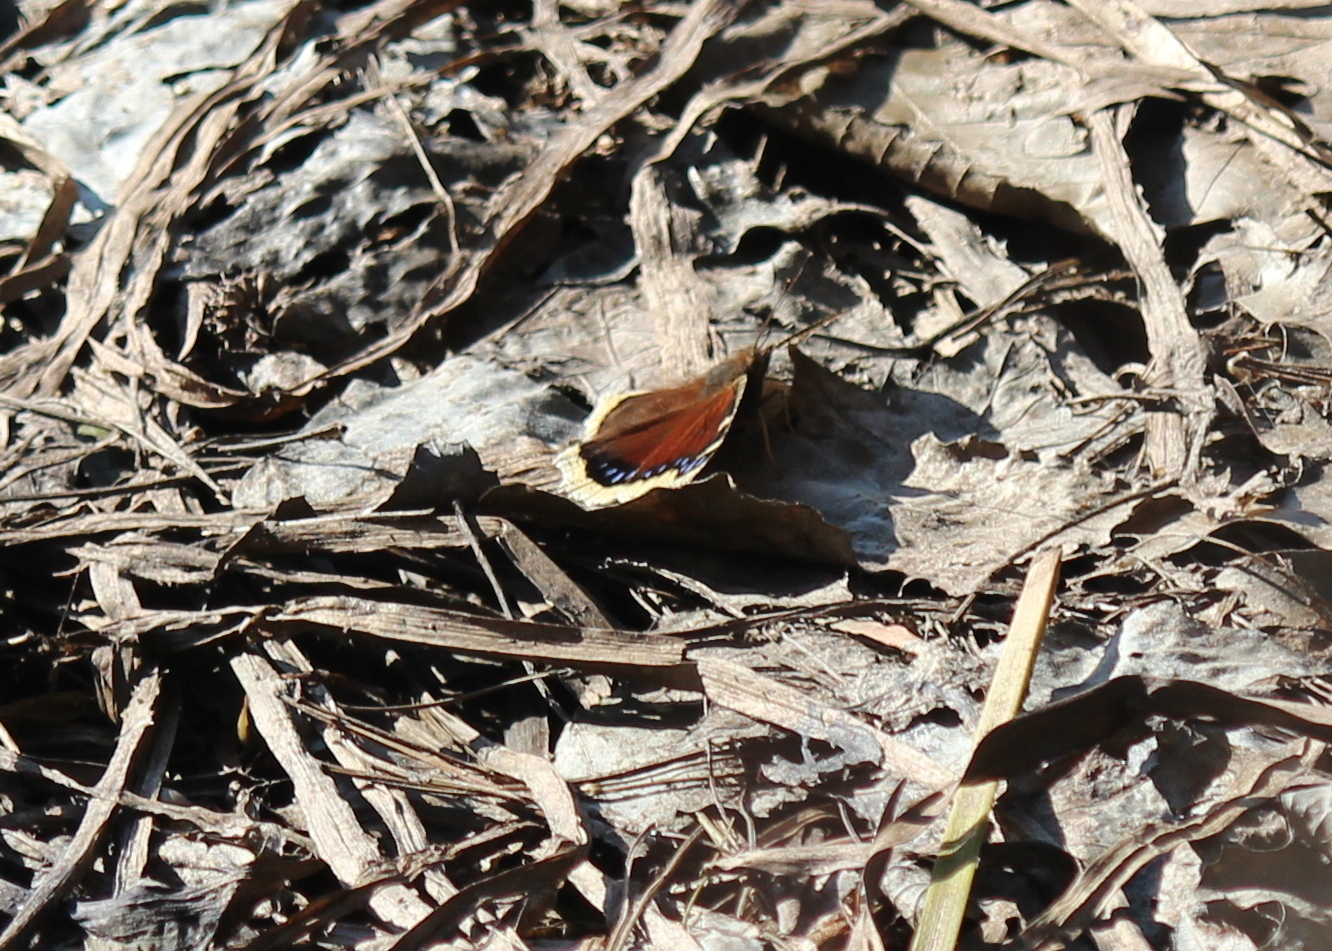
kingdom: Animalia
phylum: Arthropoda
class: Insecta
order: Lepidoptera
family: Nymphalidae
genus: Nymphalis
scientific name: Nymphalis antiopa
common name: Camberwell beauty
